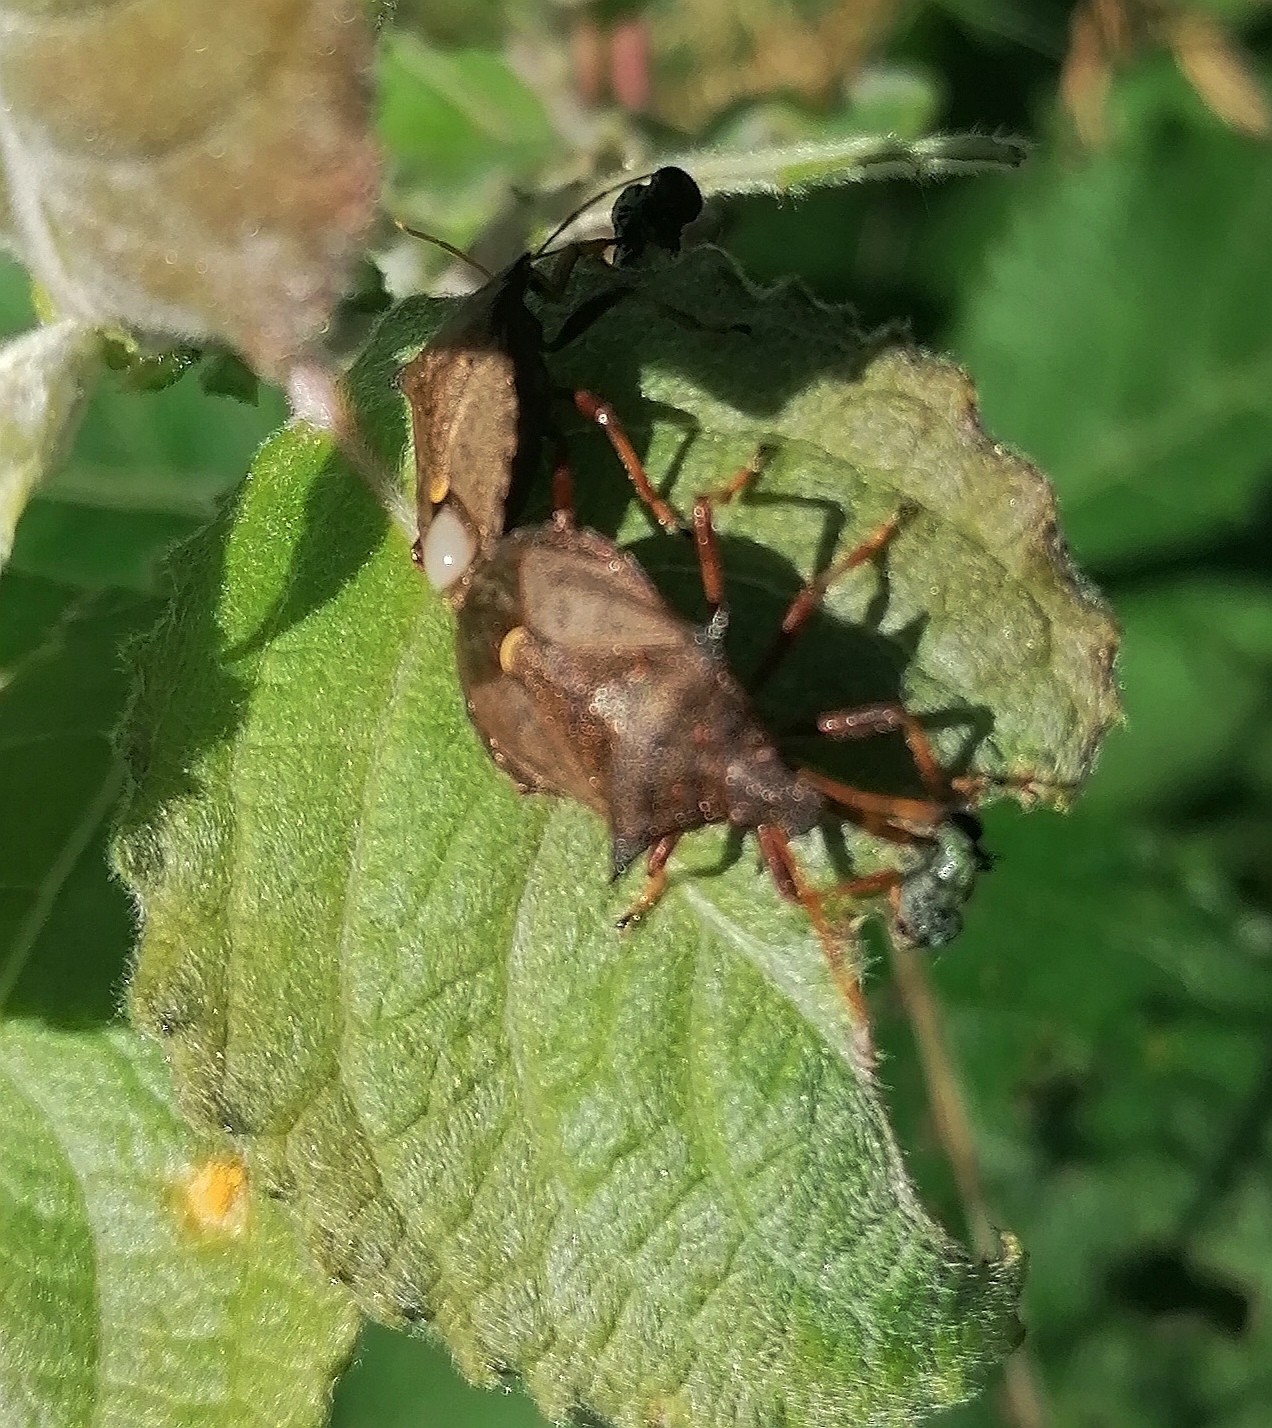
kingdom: Animalia
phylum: Arthropoda
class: Insecta
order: Hemiptera
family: Pentatomidae
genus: Picromerus
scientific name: Picromerus bidens
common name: Spiked shieldbug
